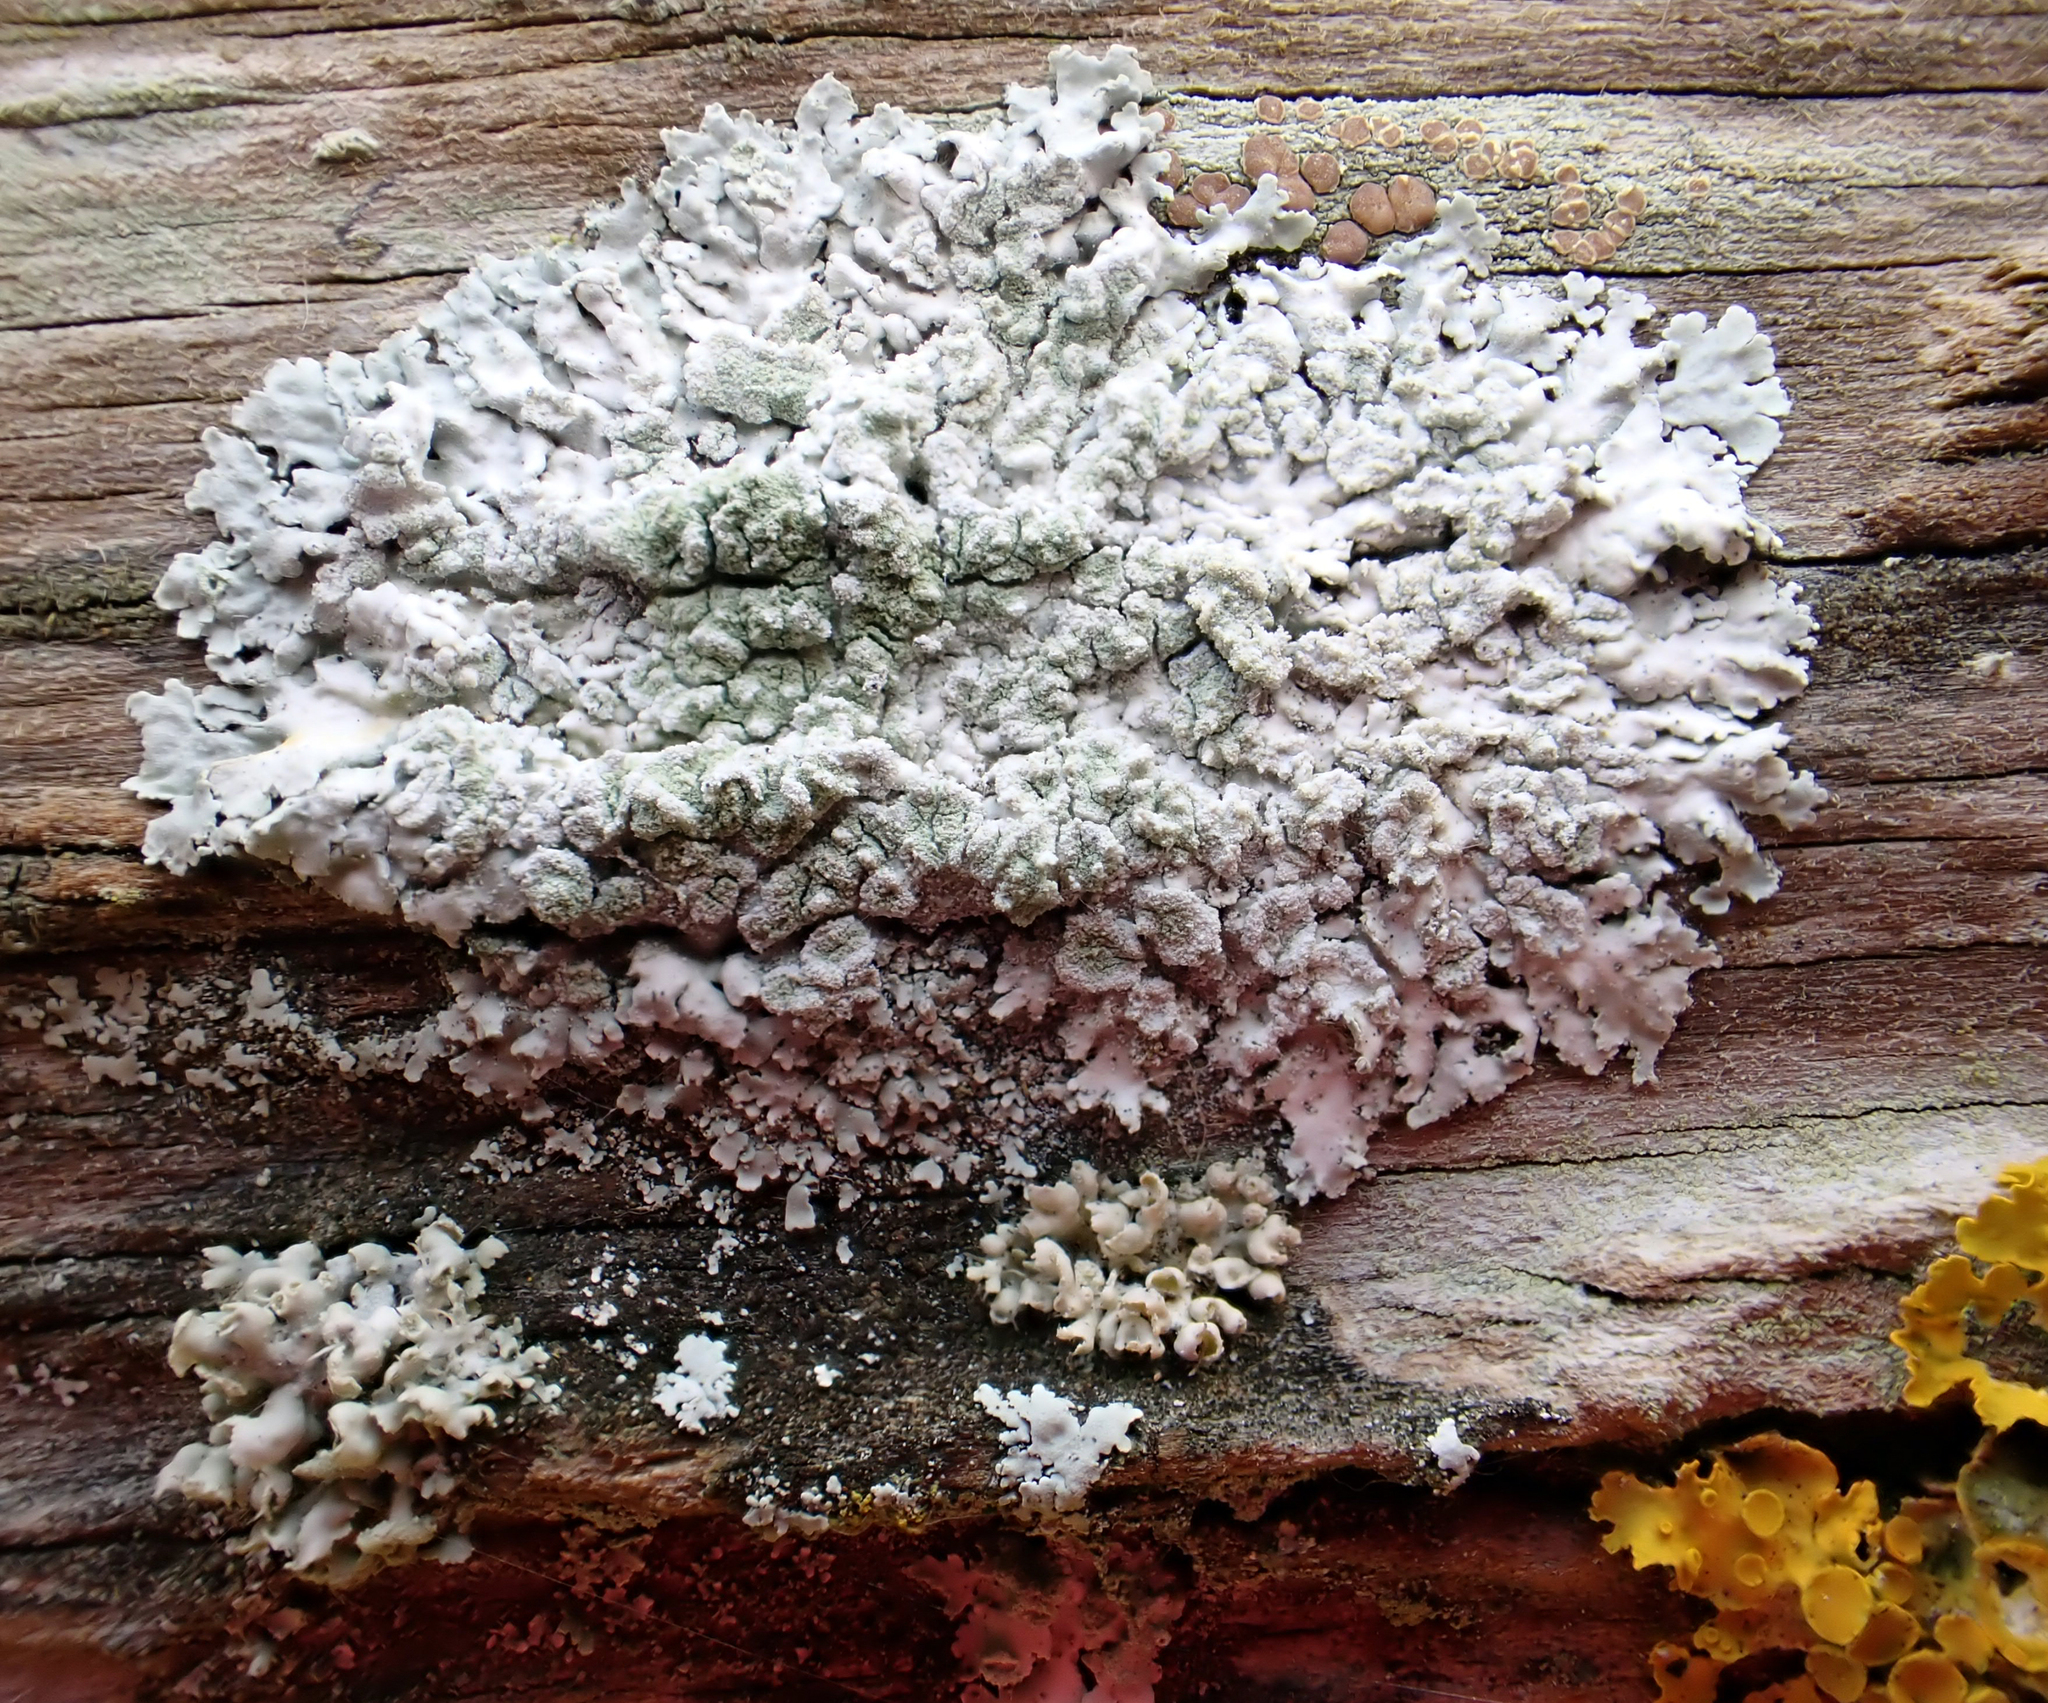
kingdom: Fungi
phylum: Ascomycota
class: Lecanoromycetes
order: Caliciales
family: Physciaceae
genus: Physcia
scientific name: Physcia poncinsii
